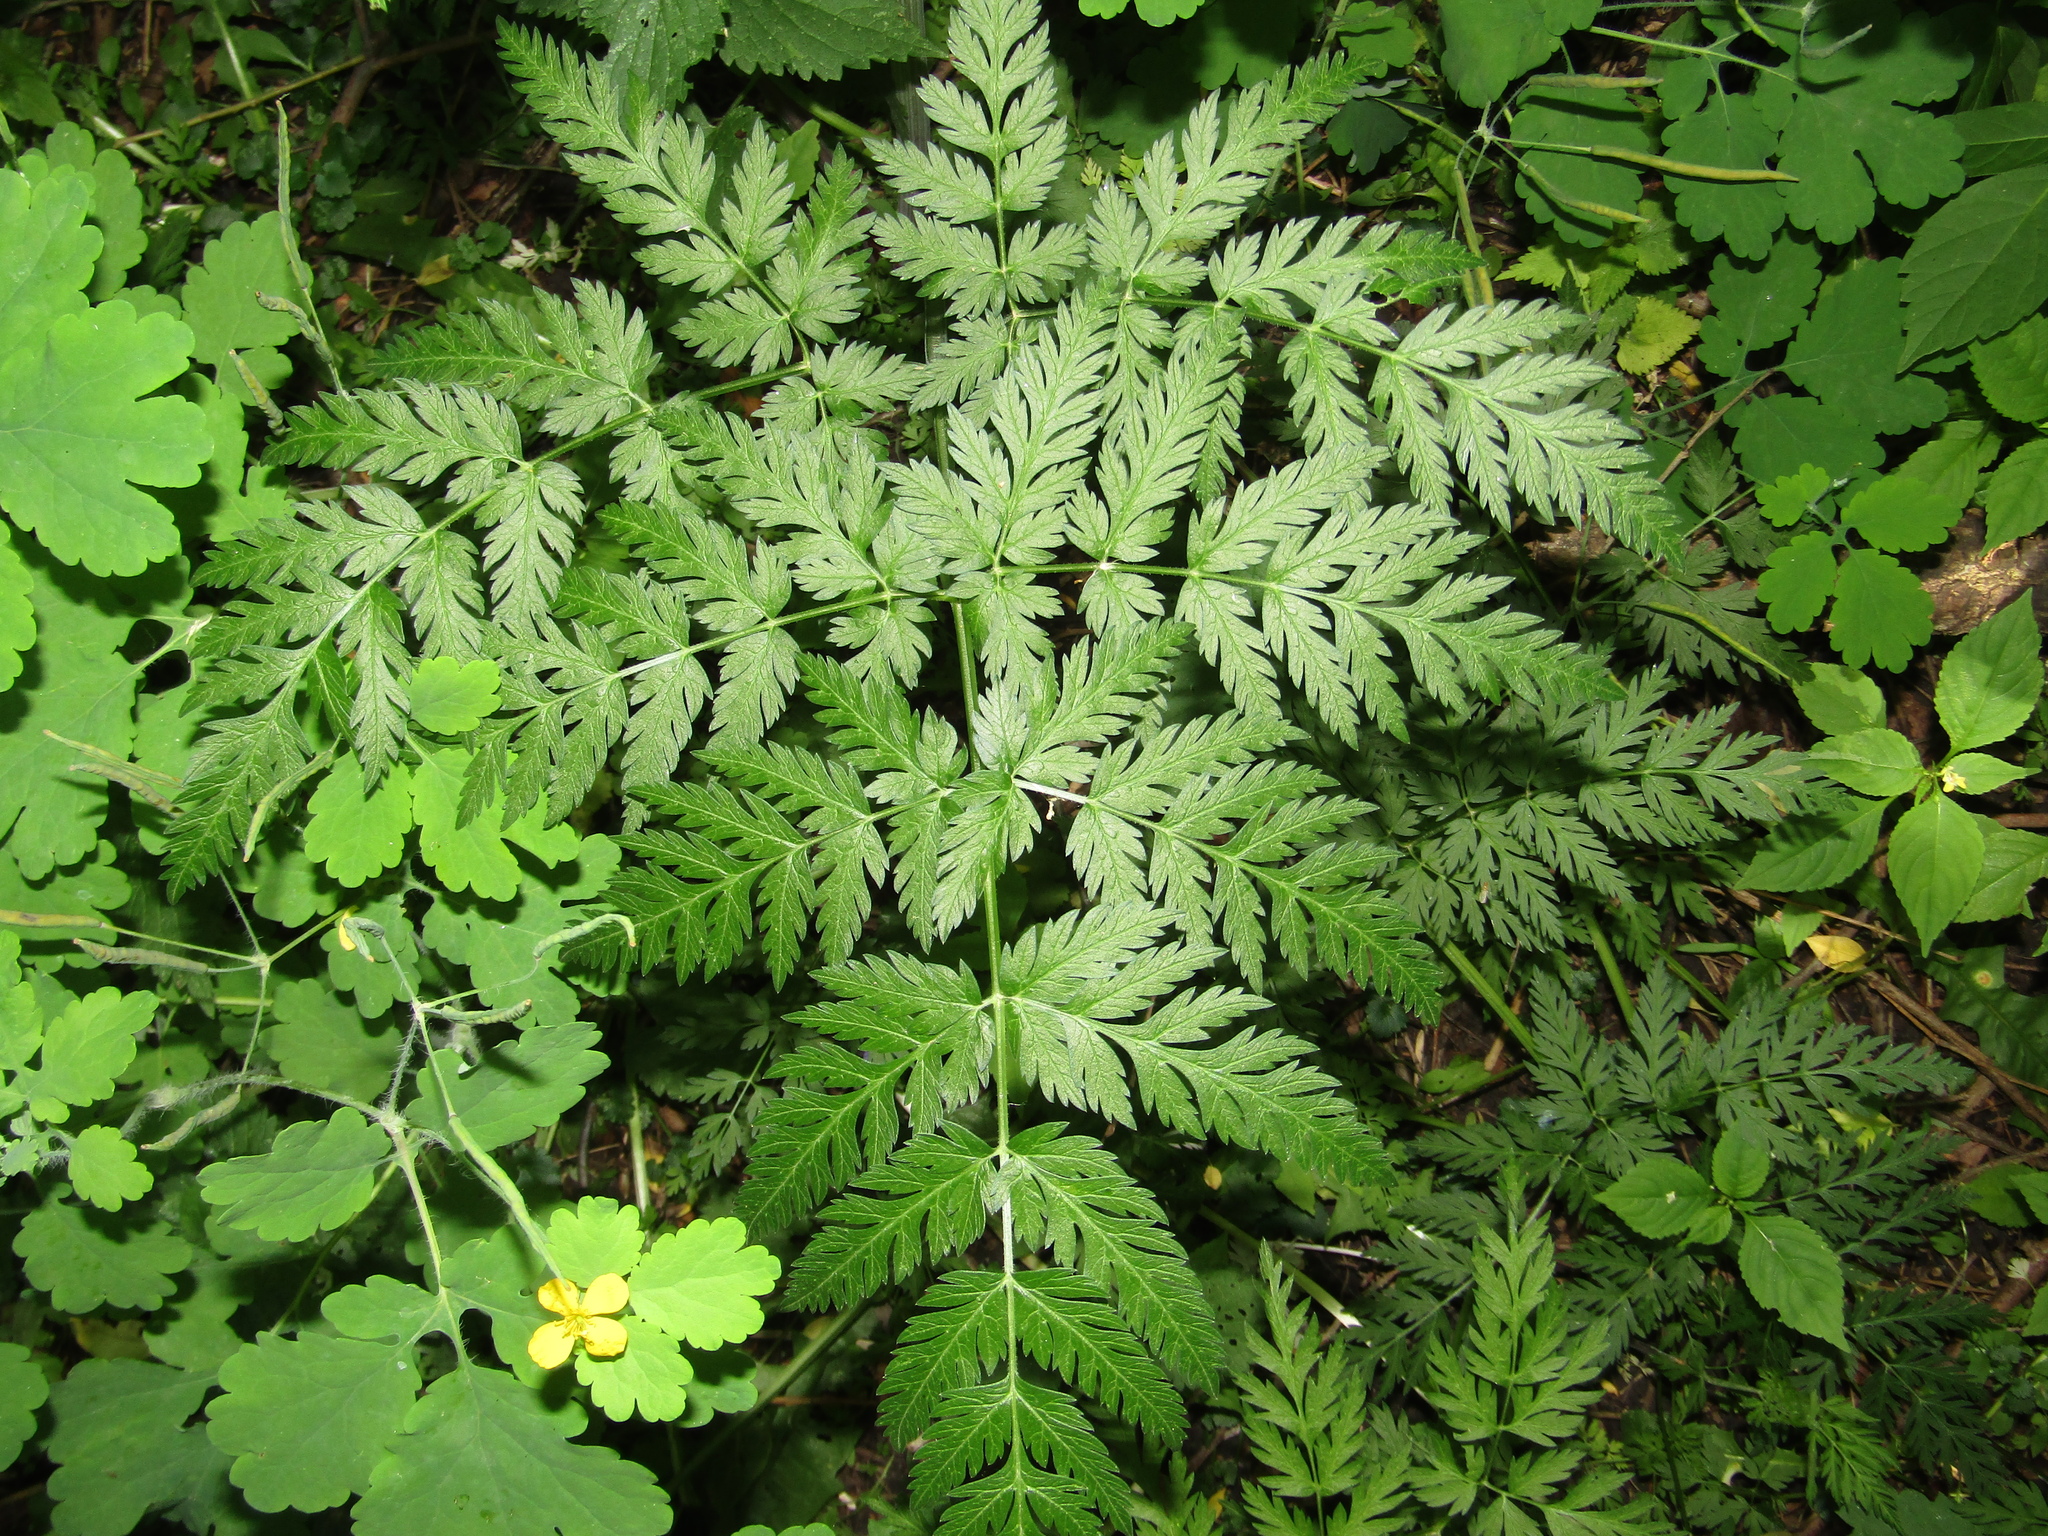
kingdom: Plantae
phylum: Tracheophyta
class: Magnoliopsida
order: Apiales
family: Apiaceae
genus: Anthriscus
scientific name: Anthriscus sylvestris
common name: Cow parsley
